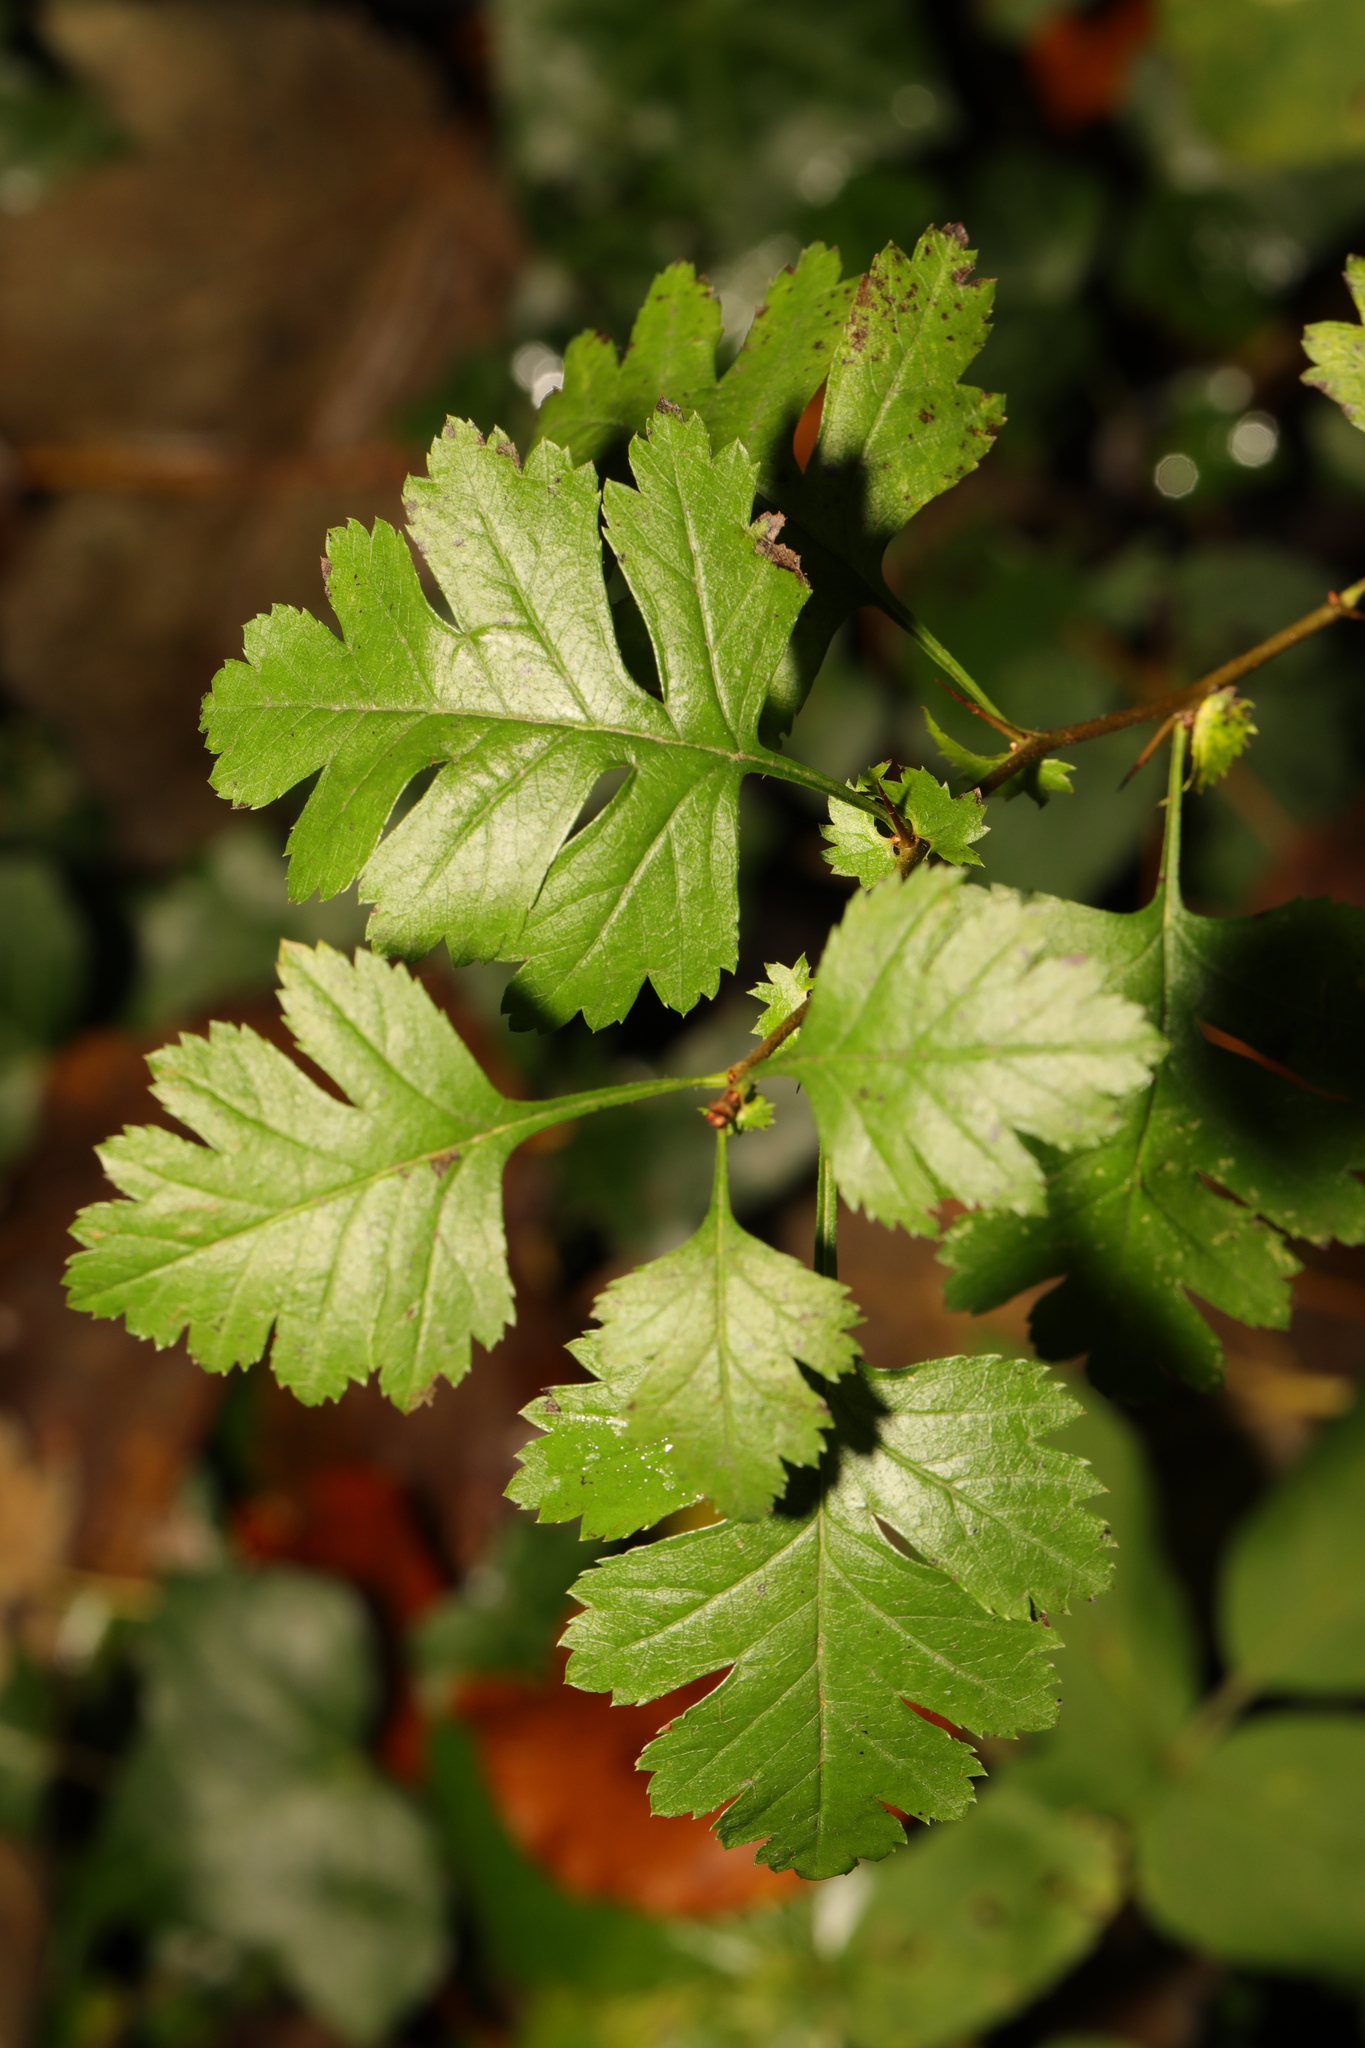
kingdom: Plantae
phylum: Tracheophyta
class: Magnoliopsida
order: Rosales
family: Rosaceae
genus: Crataegus
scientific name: Crataegus monogyna
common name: Hawthorn
